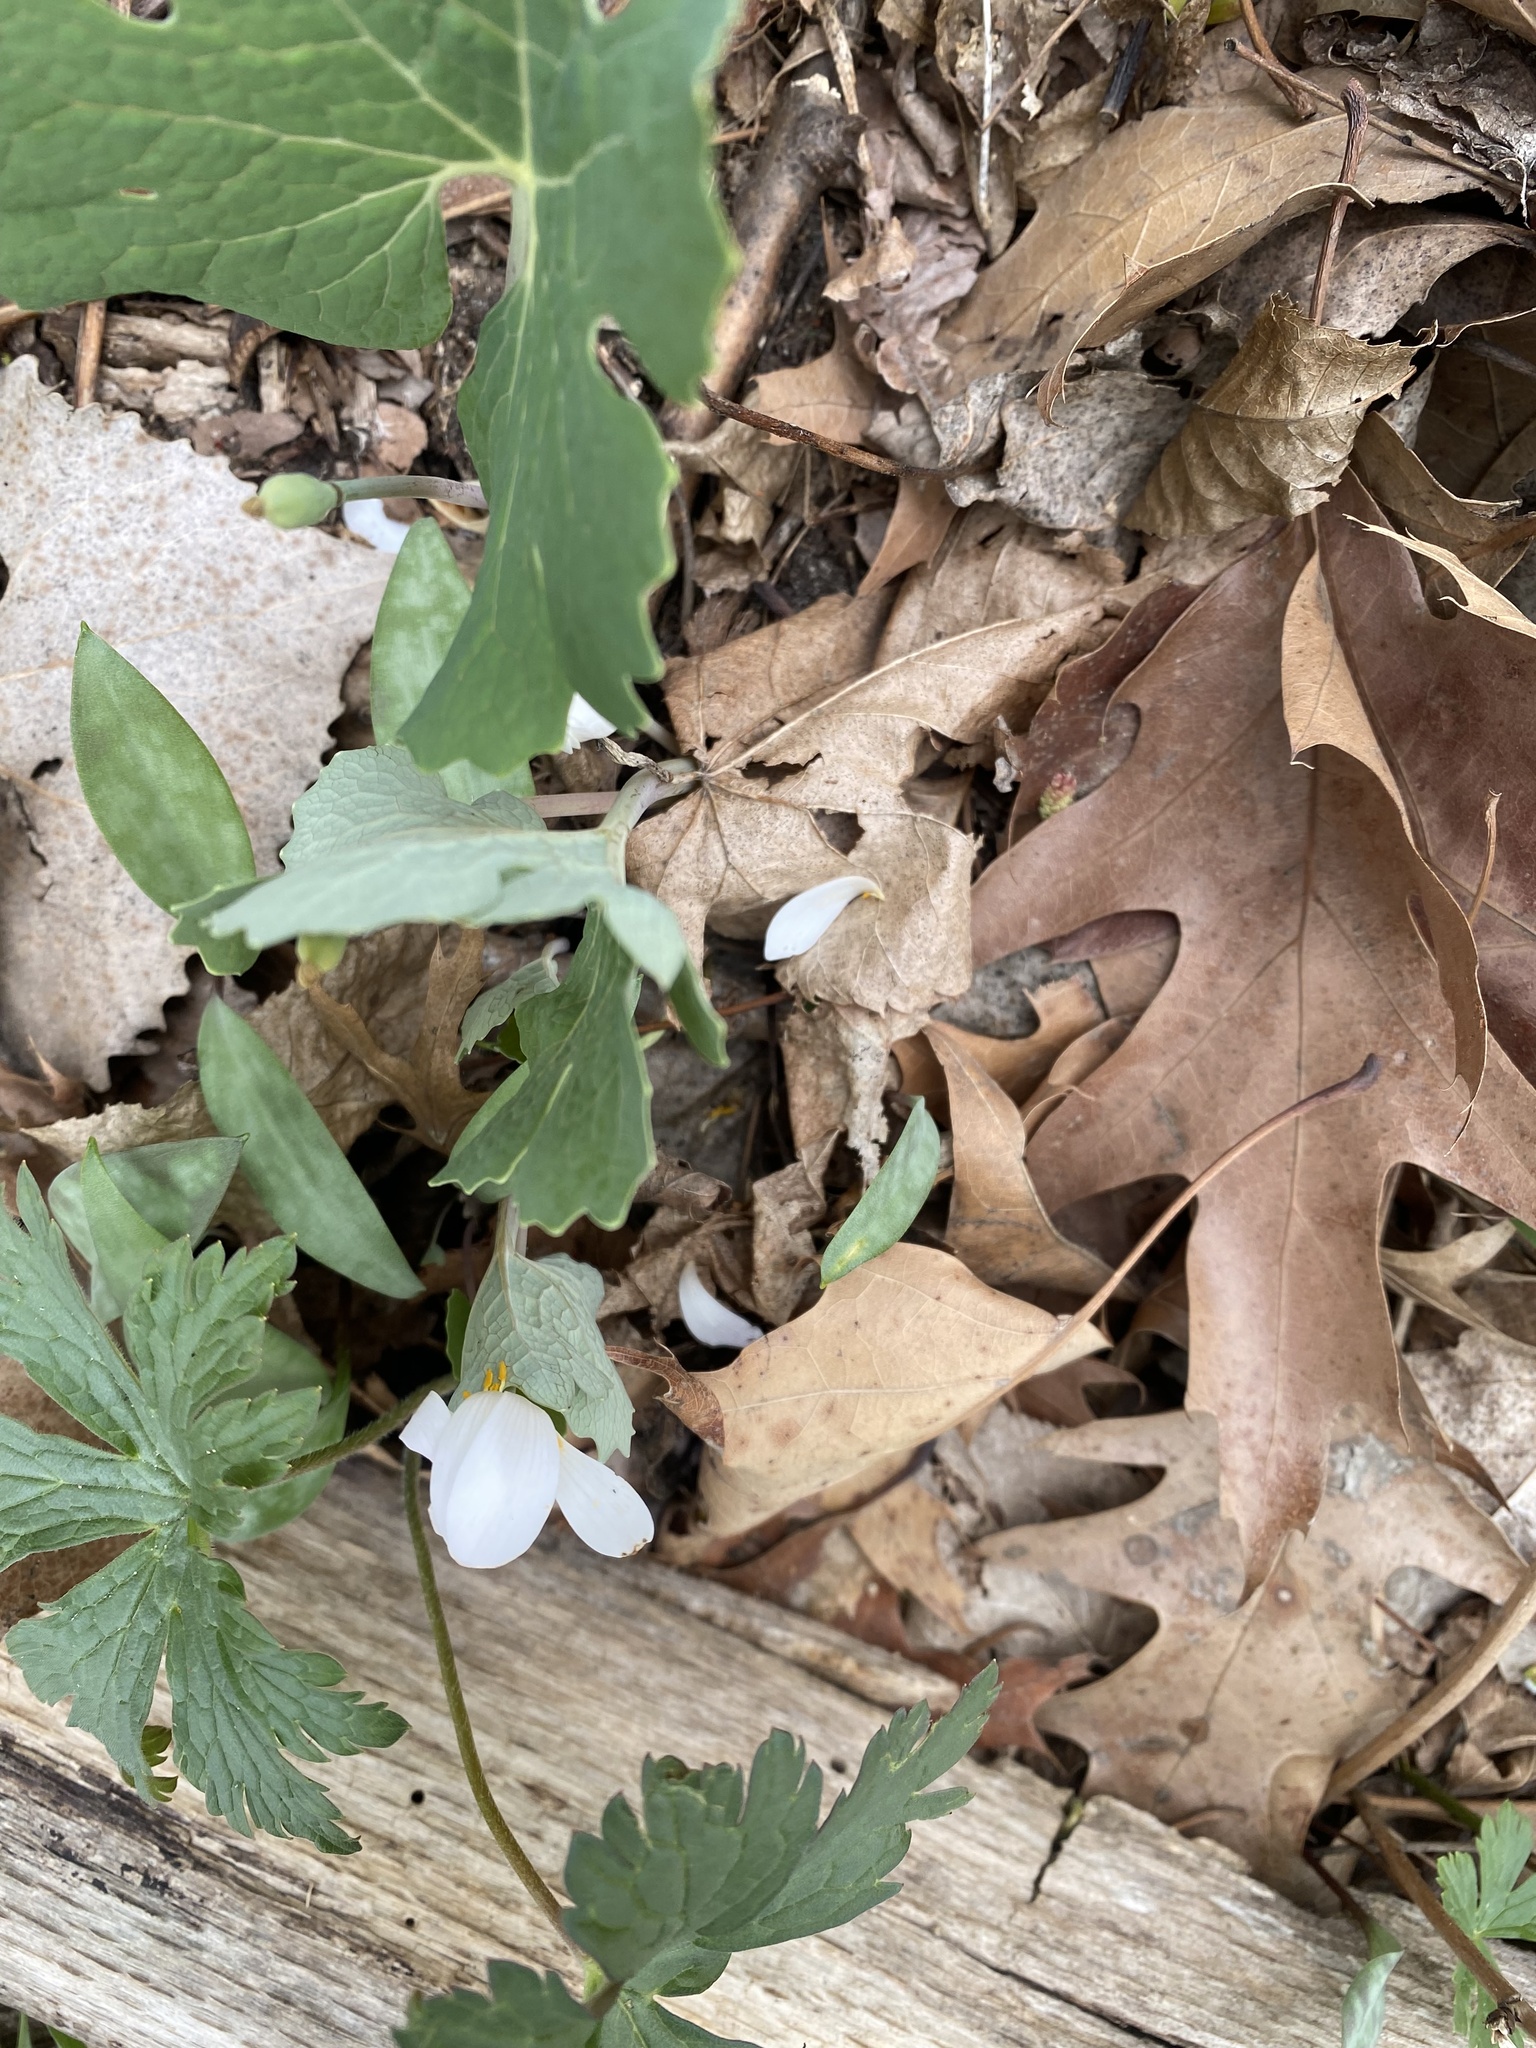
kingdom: Plantae
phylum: Tracheophyta
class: Magnoliopsida
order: Ranunculales
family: Papaveraceae
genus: Sanguinaria
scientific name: Sanguinaria canadensis
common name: Bloodroot
